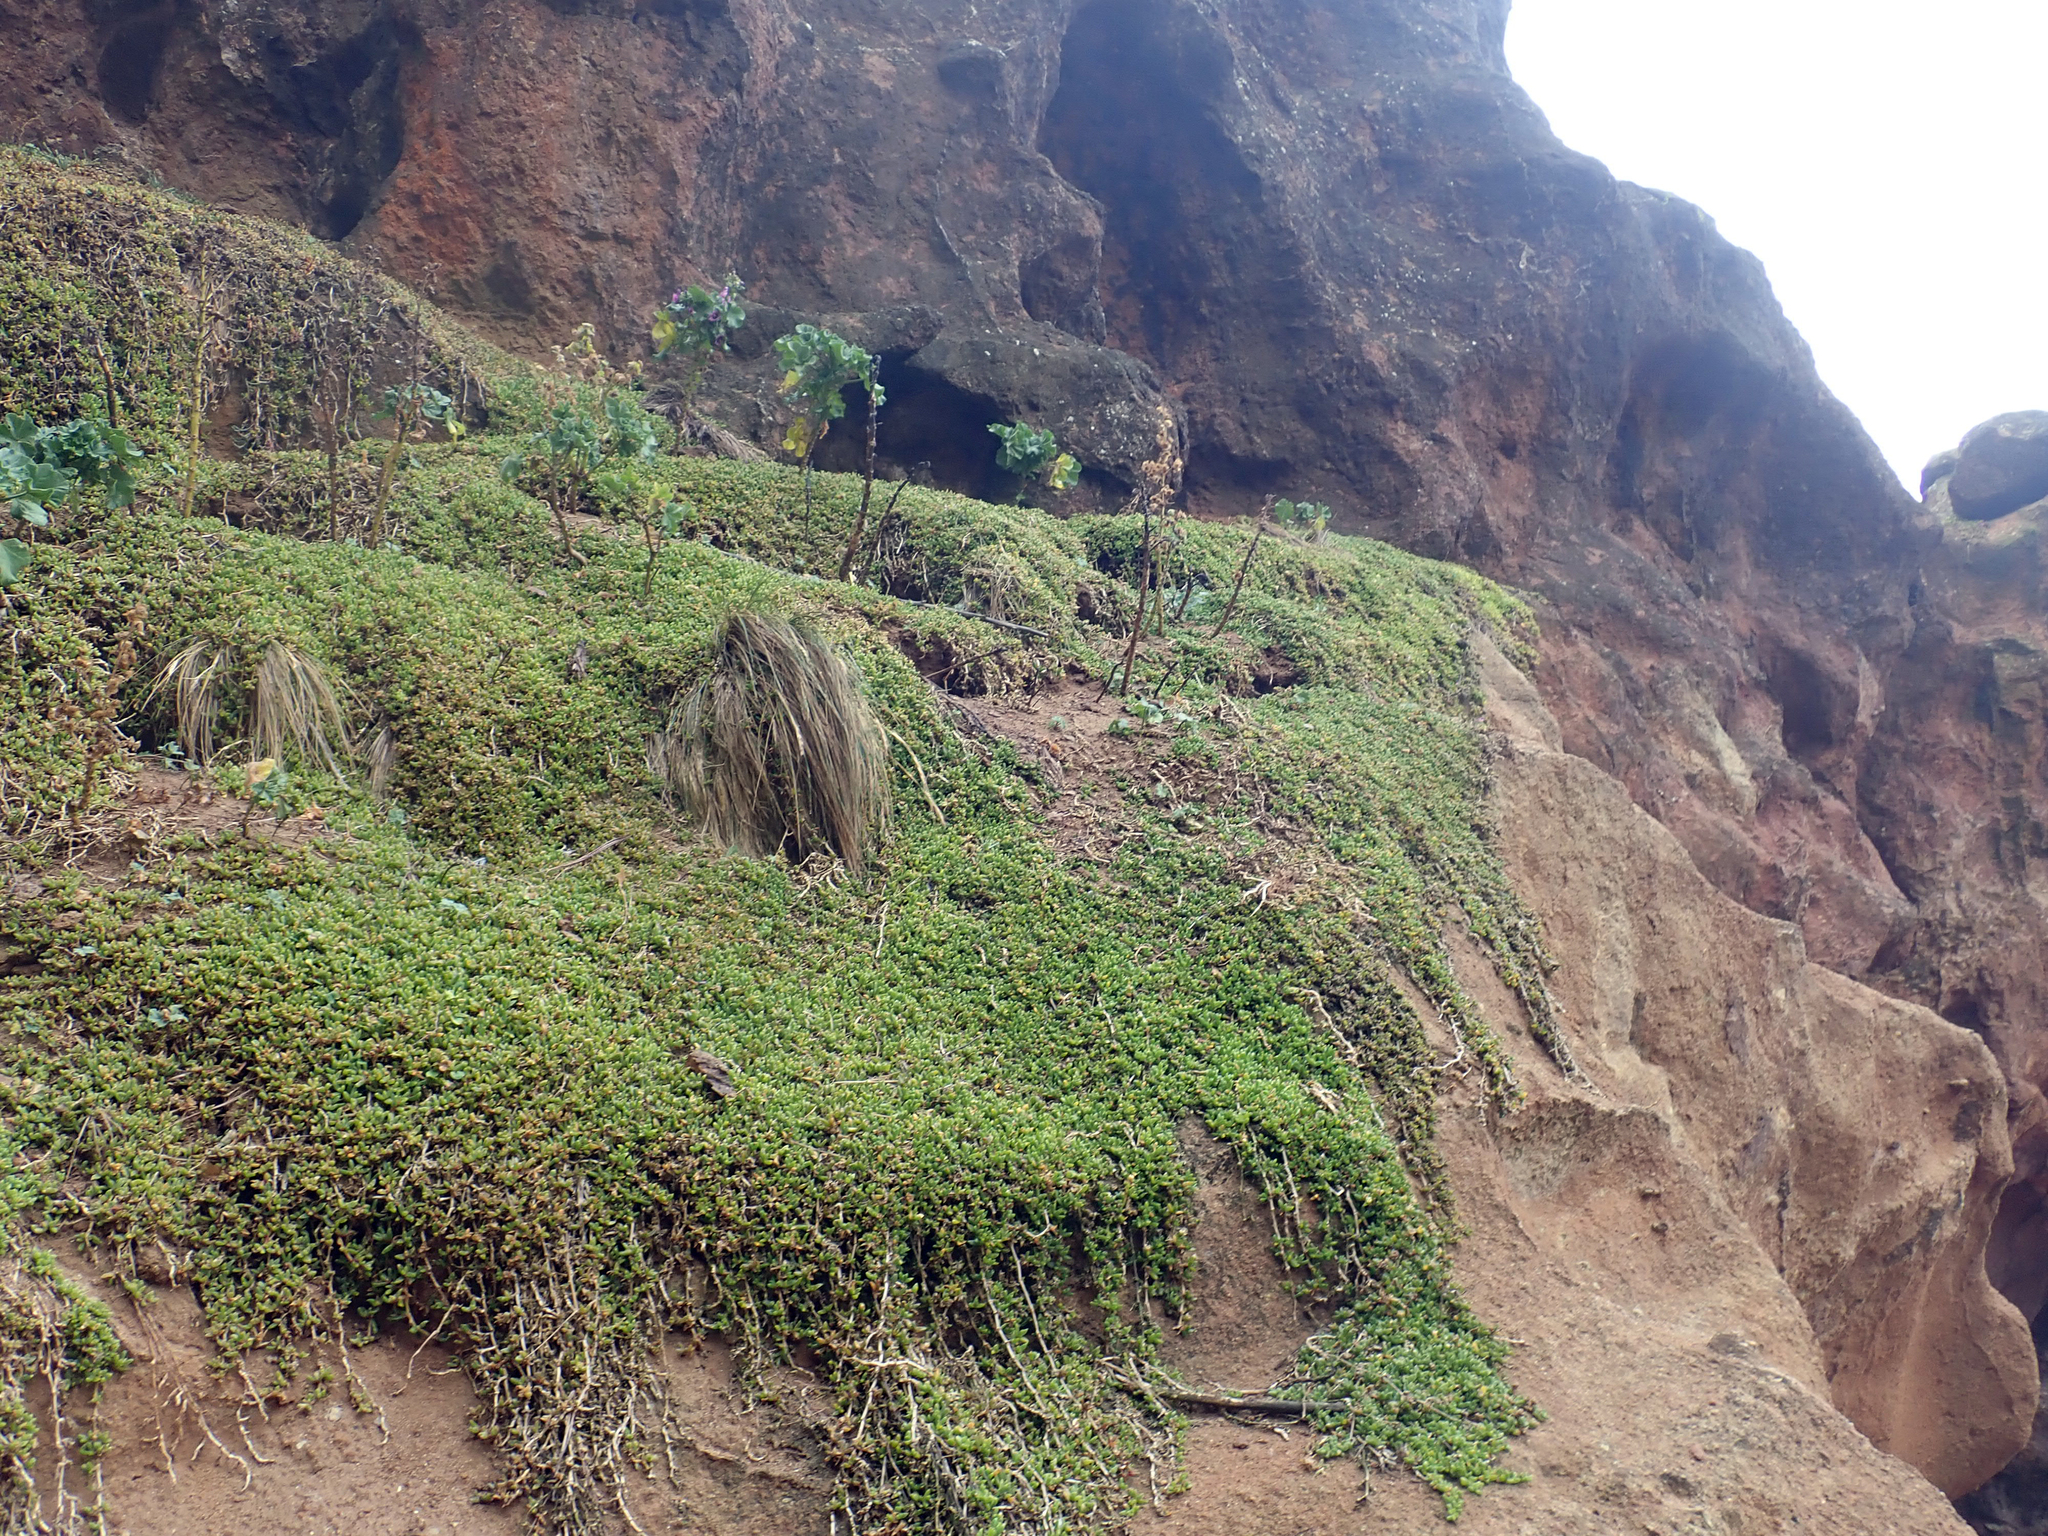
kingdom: Plantae
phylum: Tracheophyta
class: Magnoliopsida
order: Caryophyllales
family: Aizoaceae
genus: Disphyma
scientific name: Disphyma papillatum
